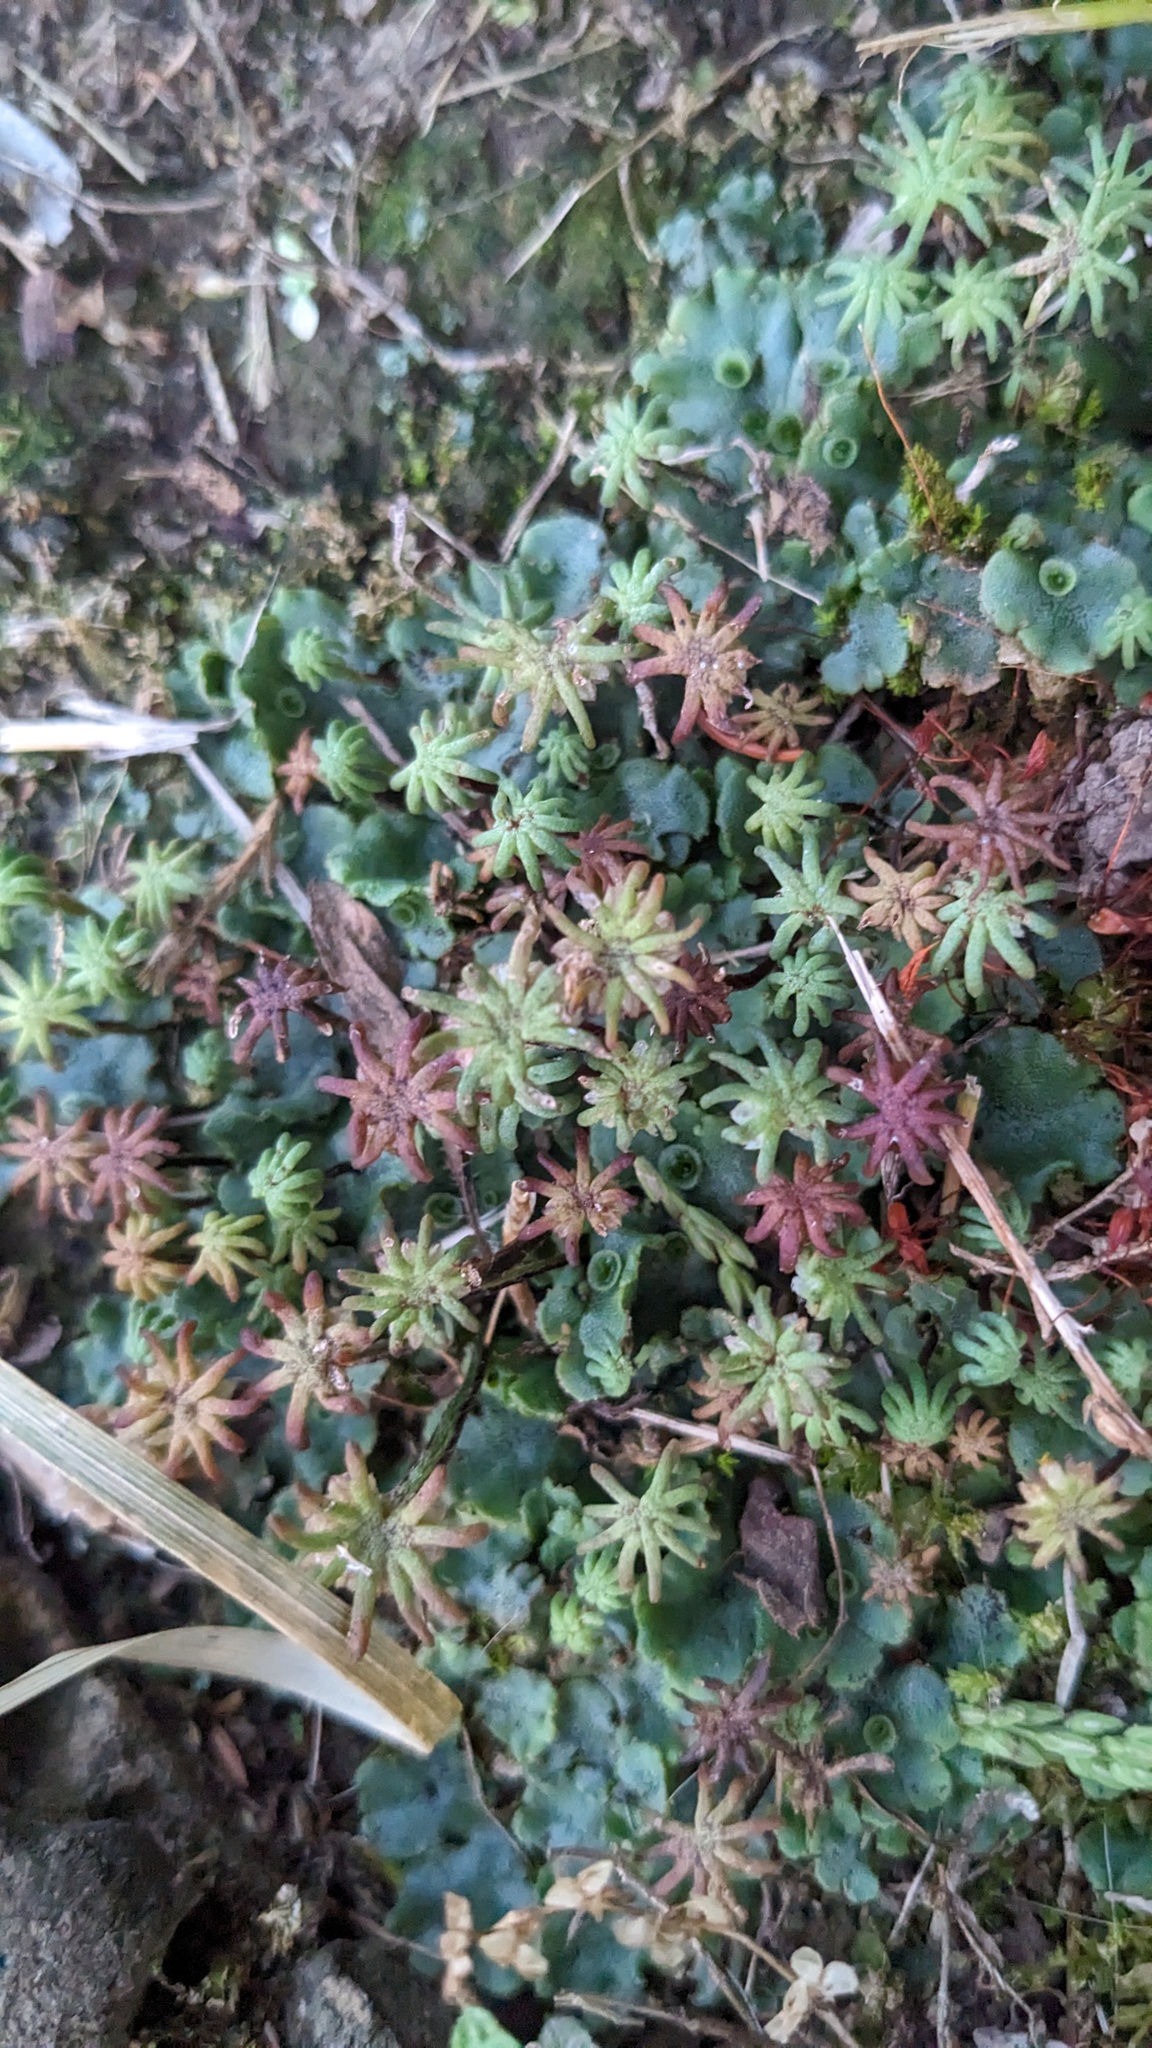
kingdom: Plantae
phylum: Marchantiophyta
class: Marchantiopsida
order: Marchantiales
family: Marchantiaceae
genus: Marchantia
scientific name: Marchantia polymorpha
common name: Common liverwort
